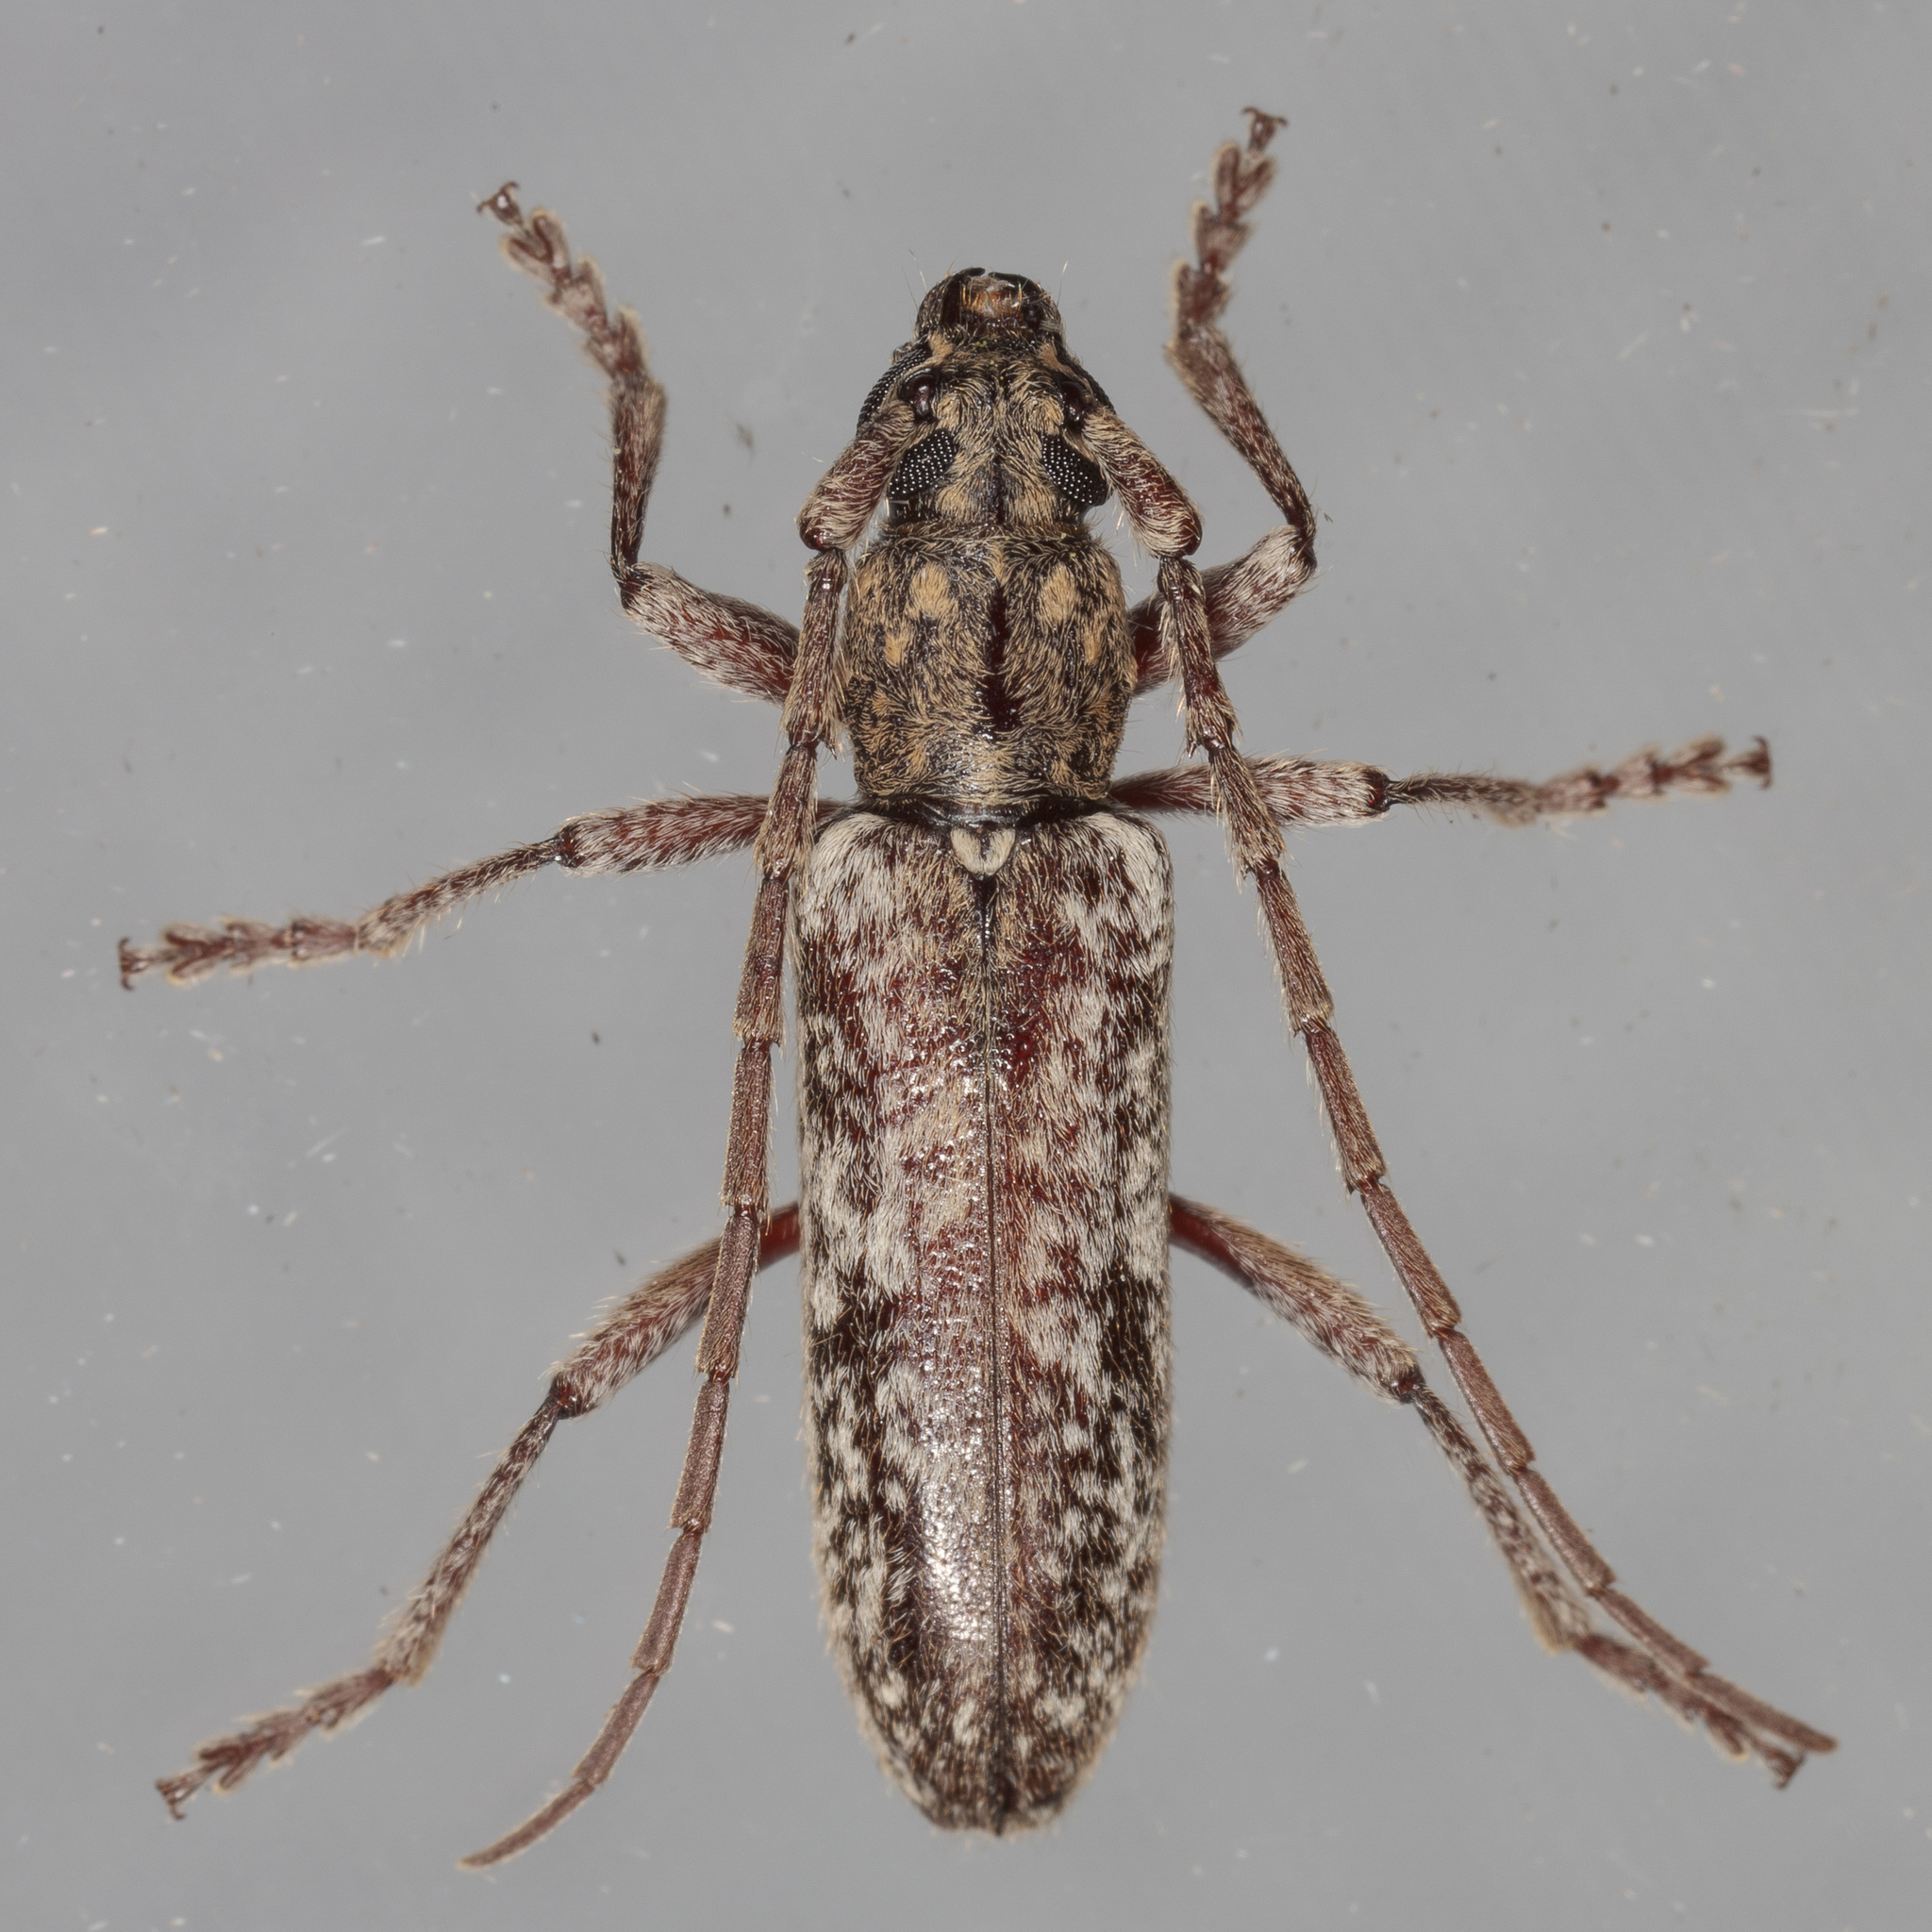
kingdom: Animalia
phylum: Arthropoda
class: Insecta
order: Coleoptera
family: Cerambycidae
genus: Anelaphus
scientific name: Anelaphus debilis
